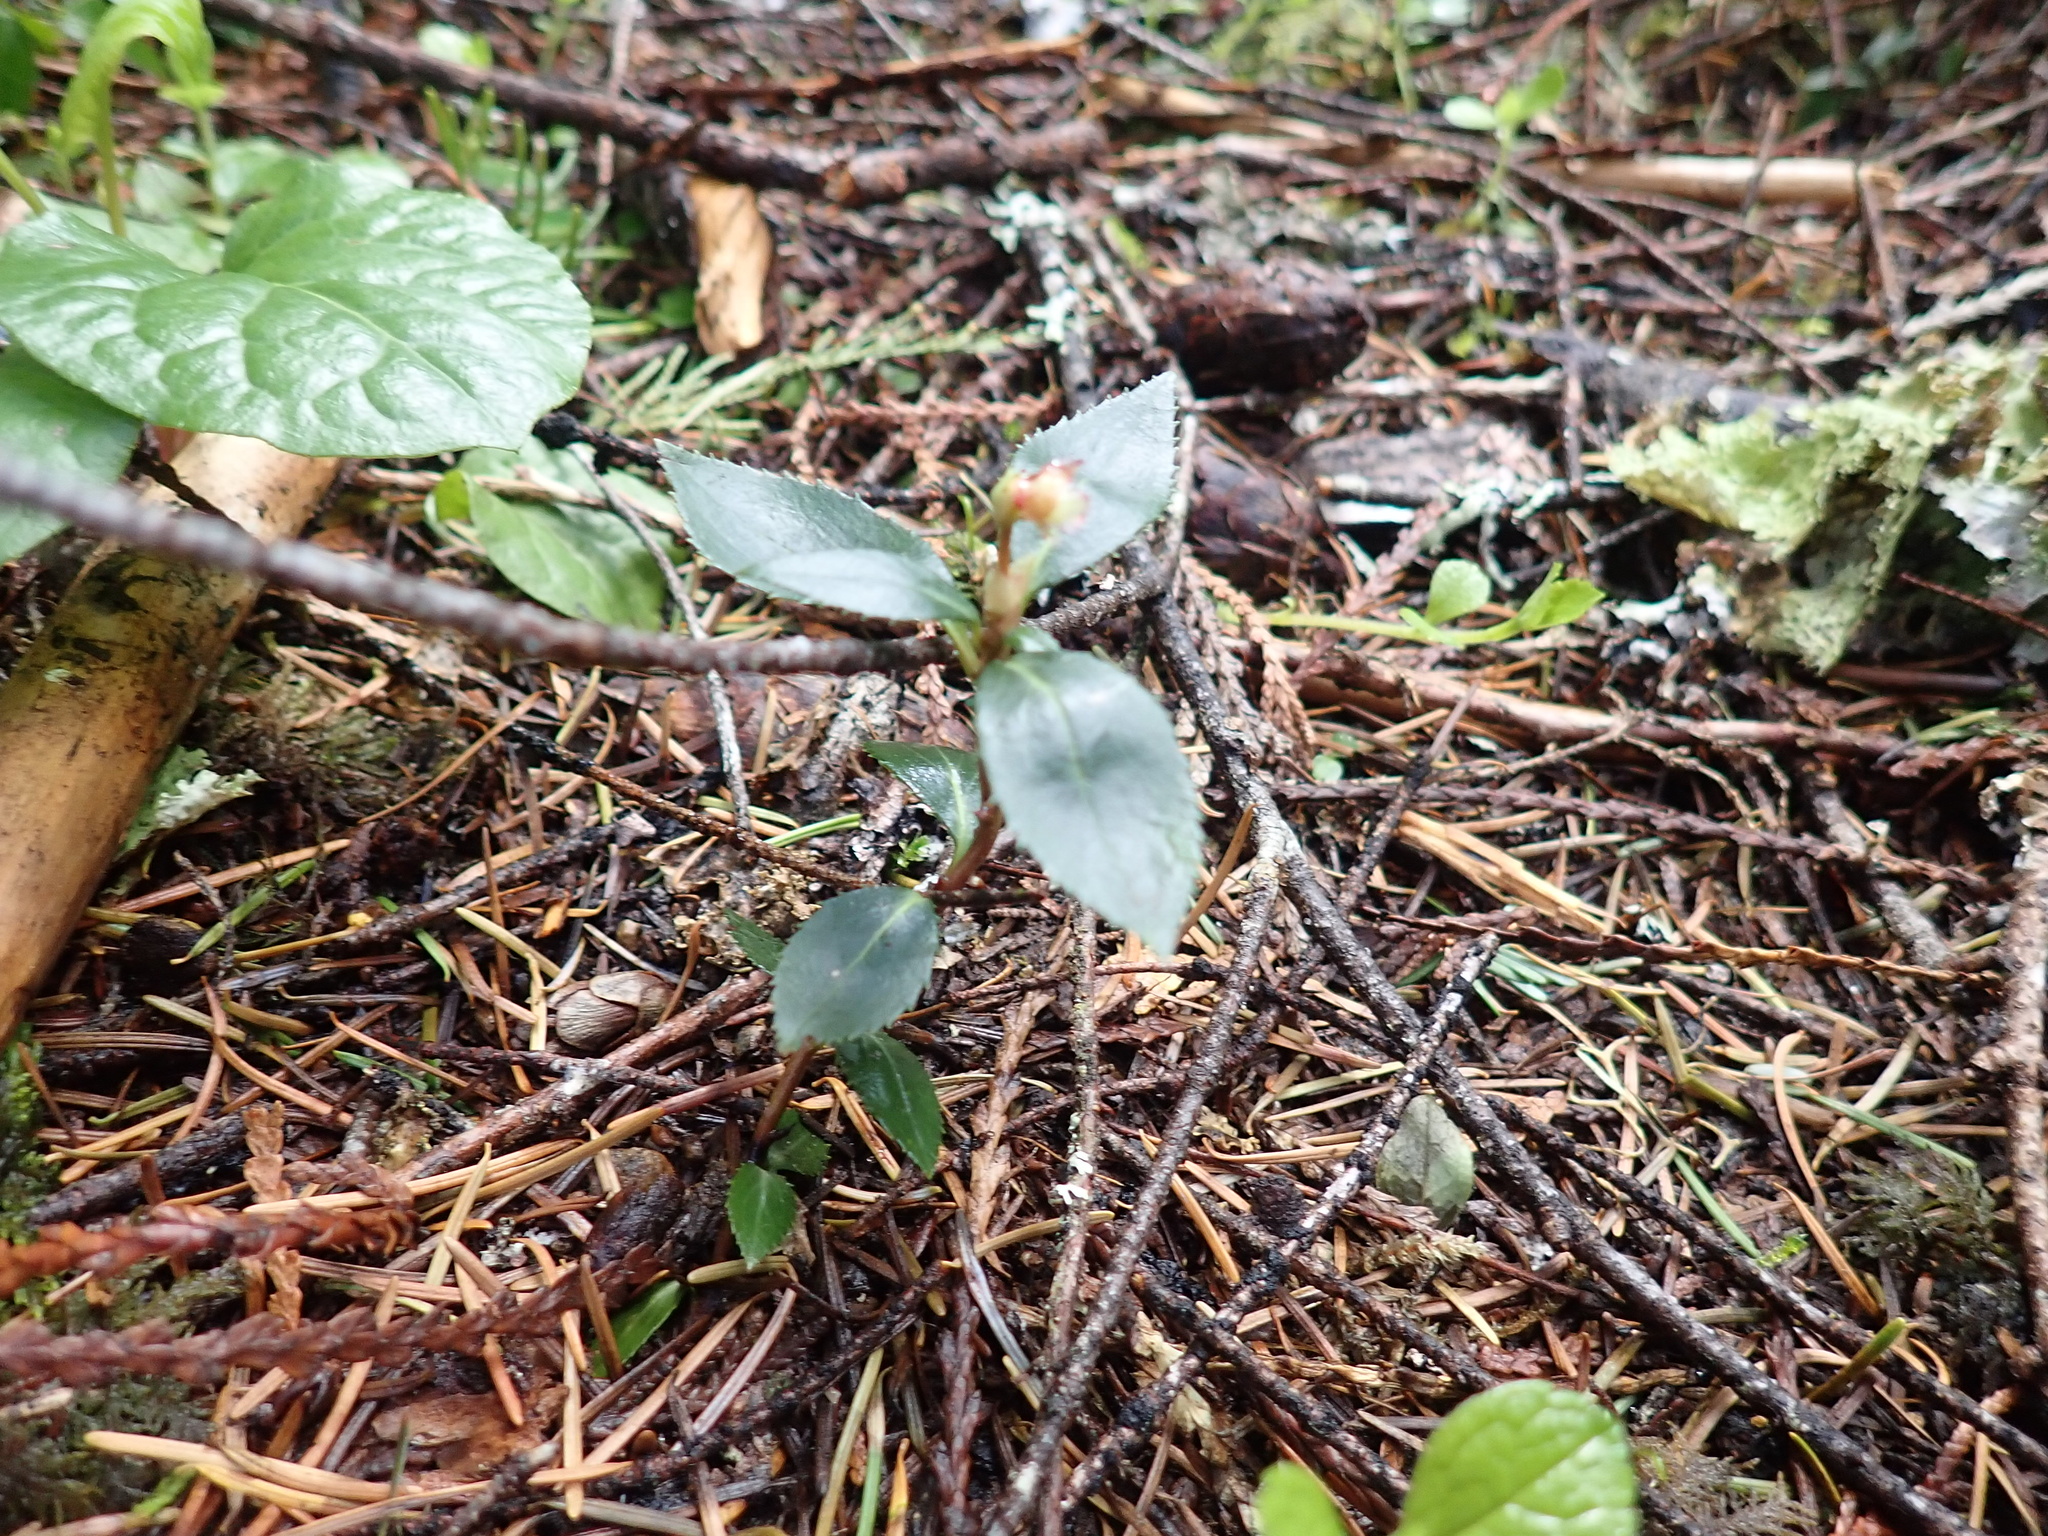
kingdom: Plantae
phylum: Tracheophyta
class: Magnoliopsida
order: Ericales
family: Ericaceae
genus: Chimaphila
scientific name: Chimaphila menziesii
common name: Menzies' pipsissewa
